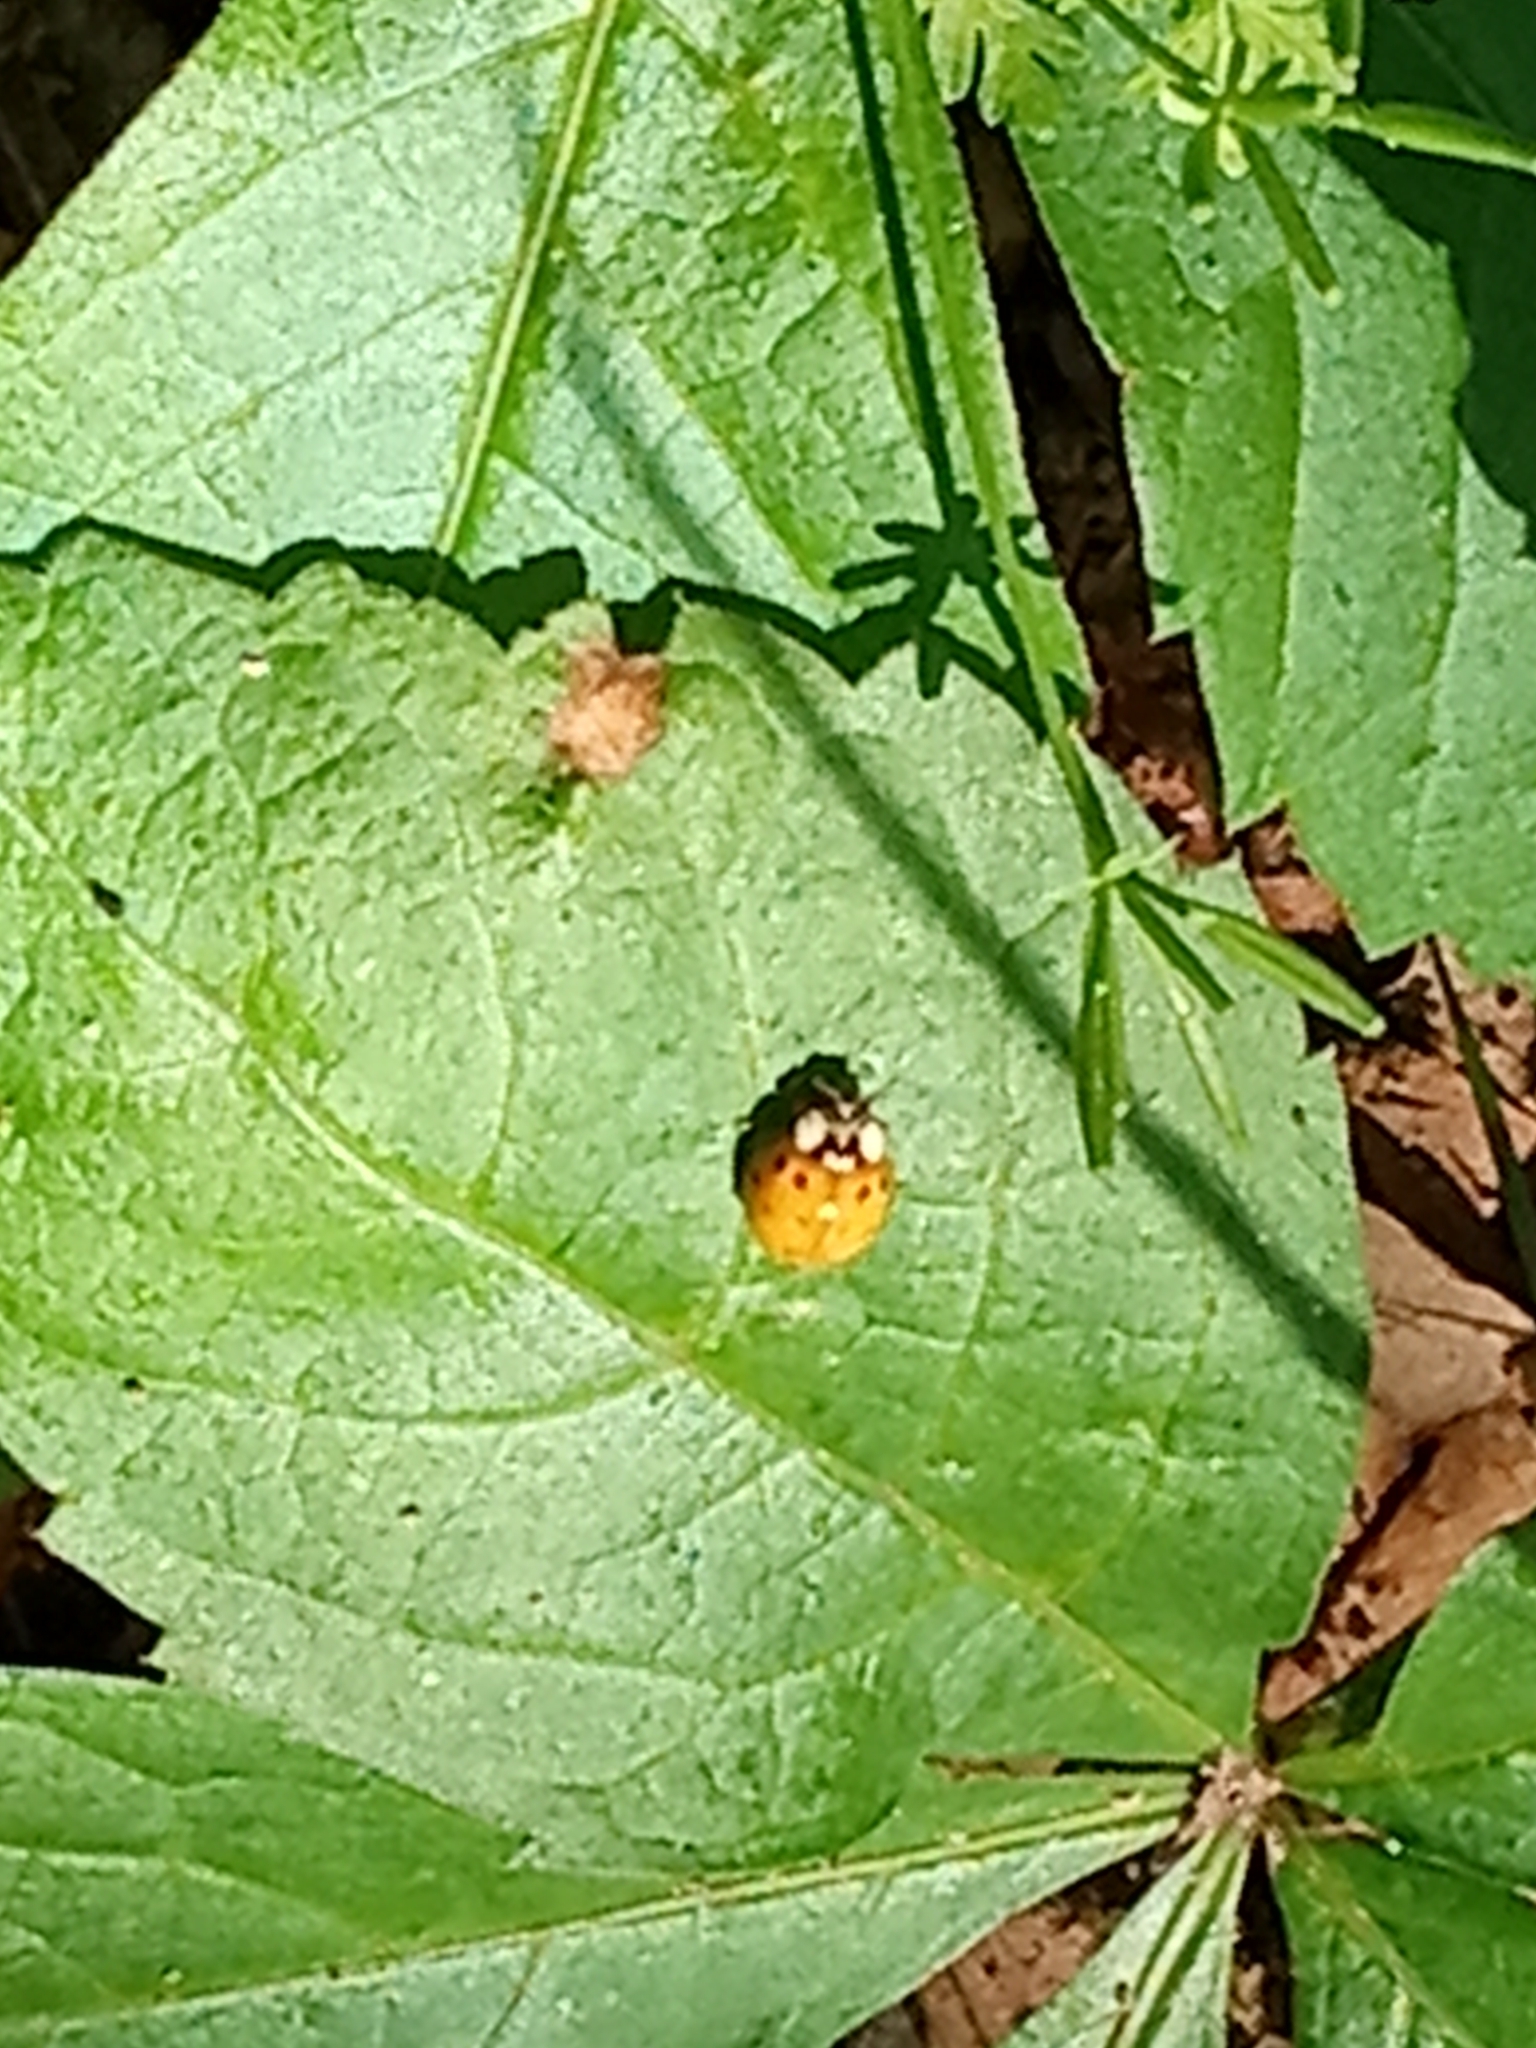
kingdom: Animalia
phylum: Arthropoda
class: Insecta
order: Coleoptera
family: Coccinellidae
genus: Harmonia
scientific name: Harmonia axyridis
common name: Harlequin ladybird
